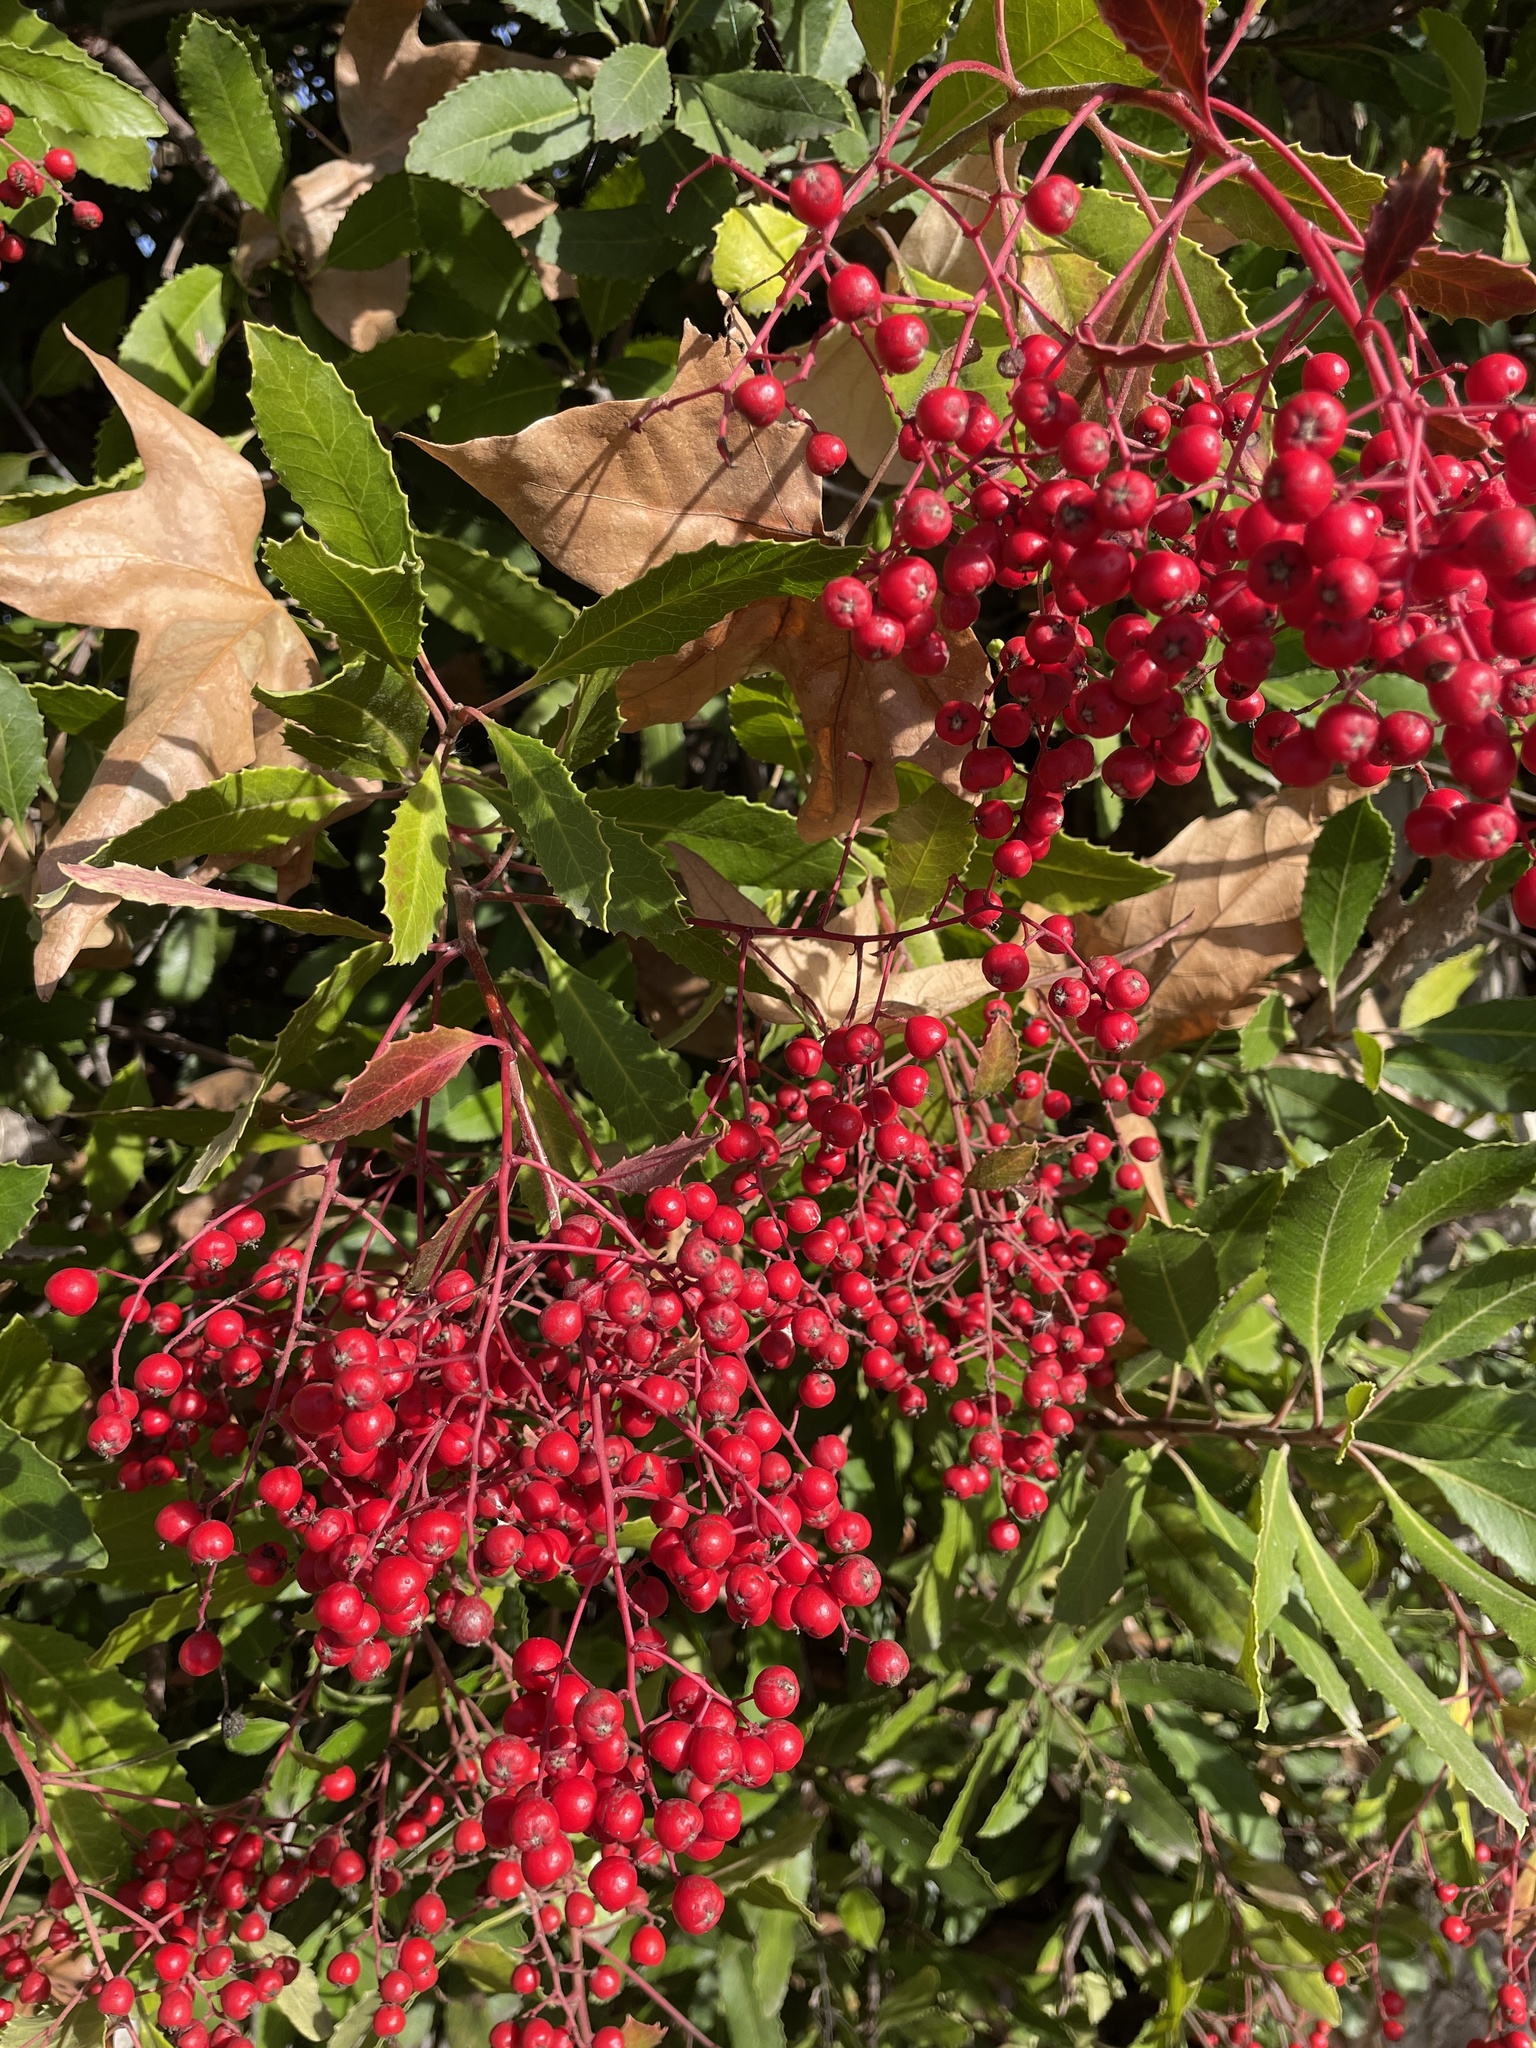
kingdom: Plantae
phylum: Tracheophyta
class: Magnoliopsida
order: Rosales
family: Rosaceae
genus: Heteromeles
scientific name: Heteromeles arbutifolia
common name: California-holly
